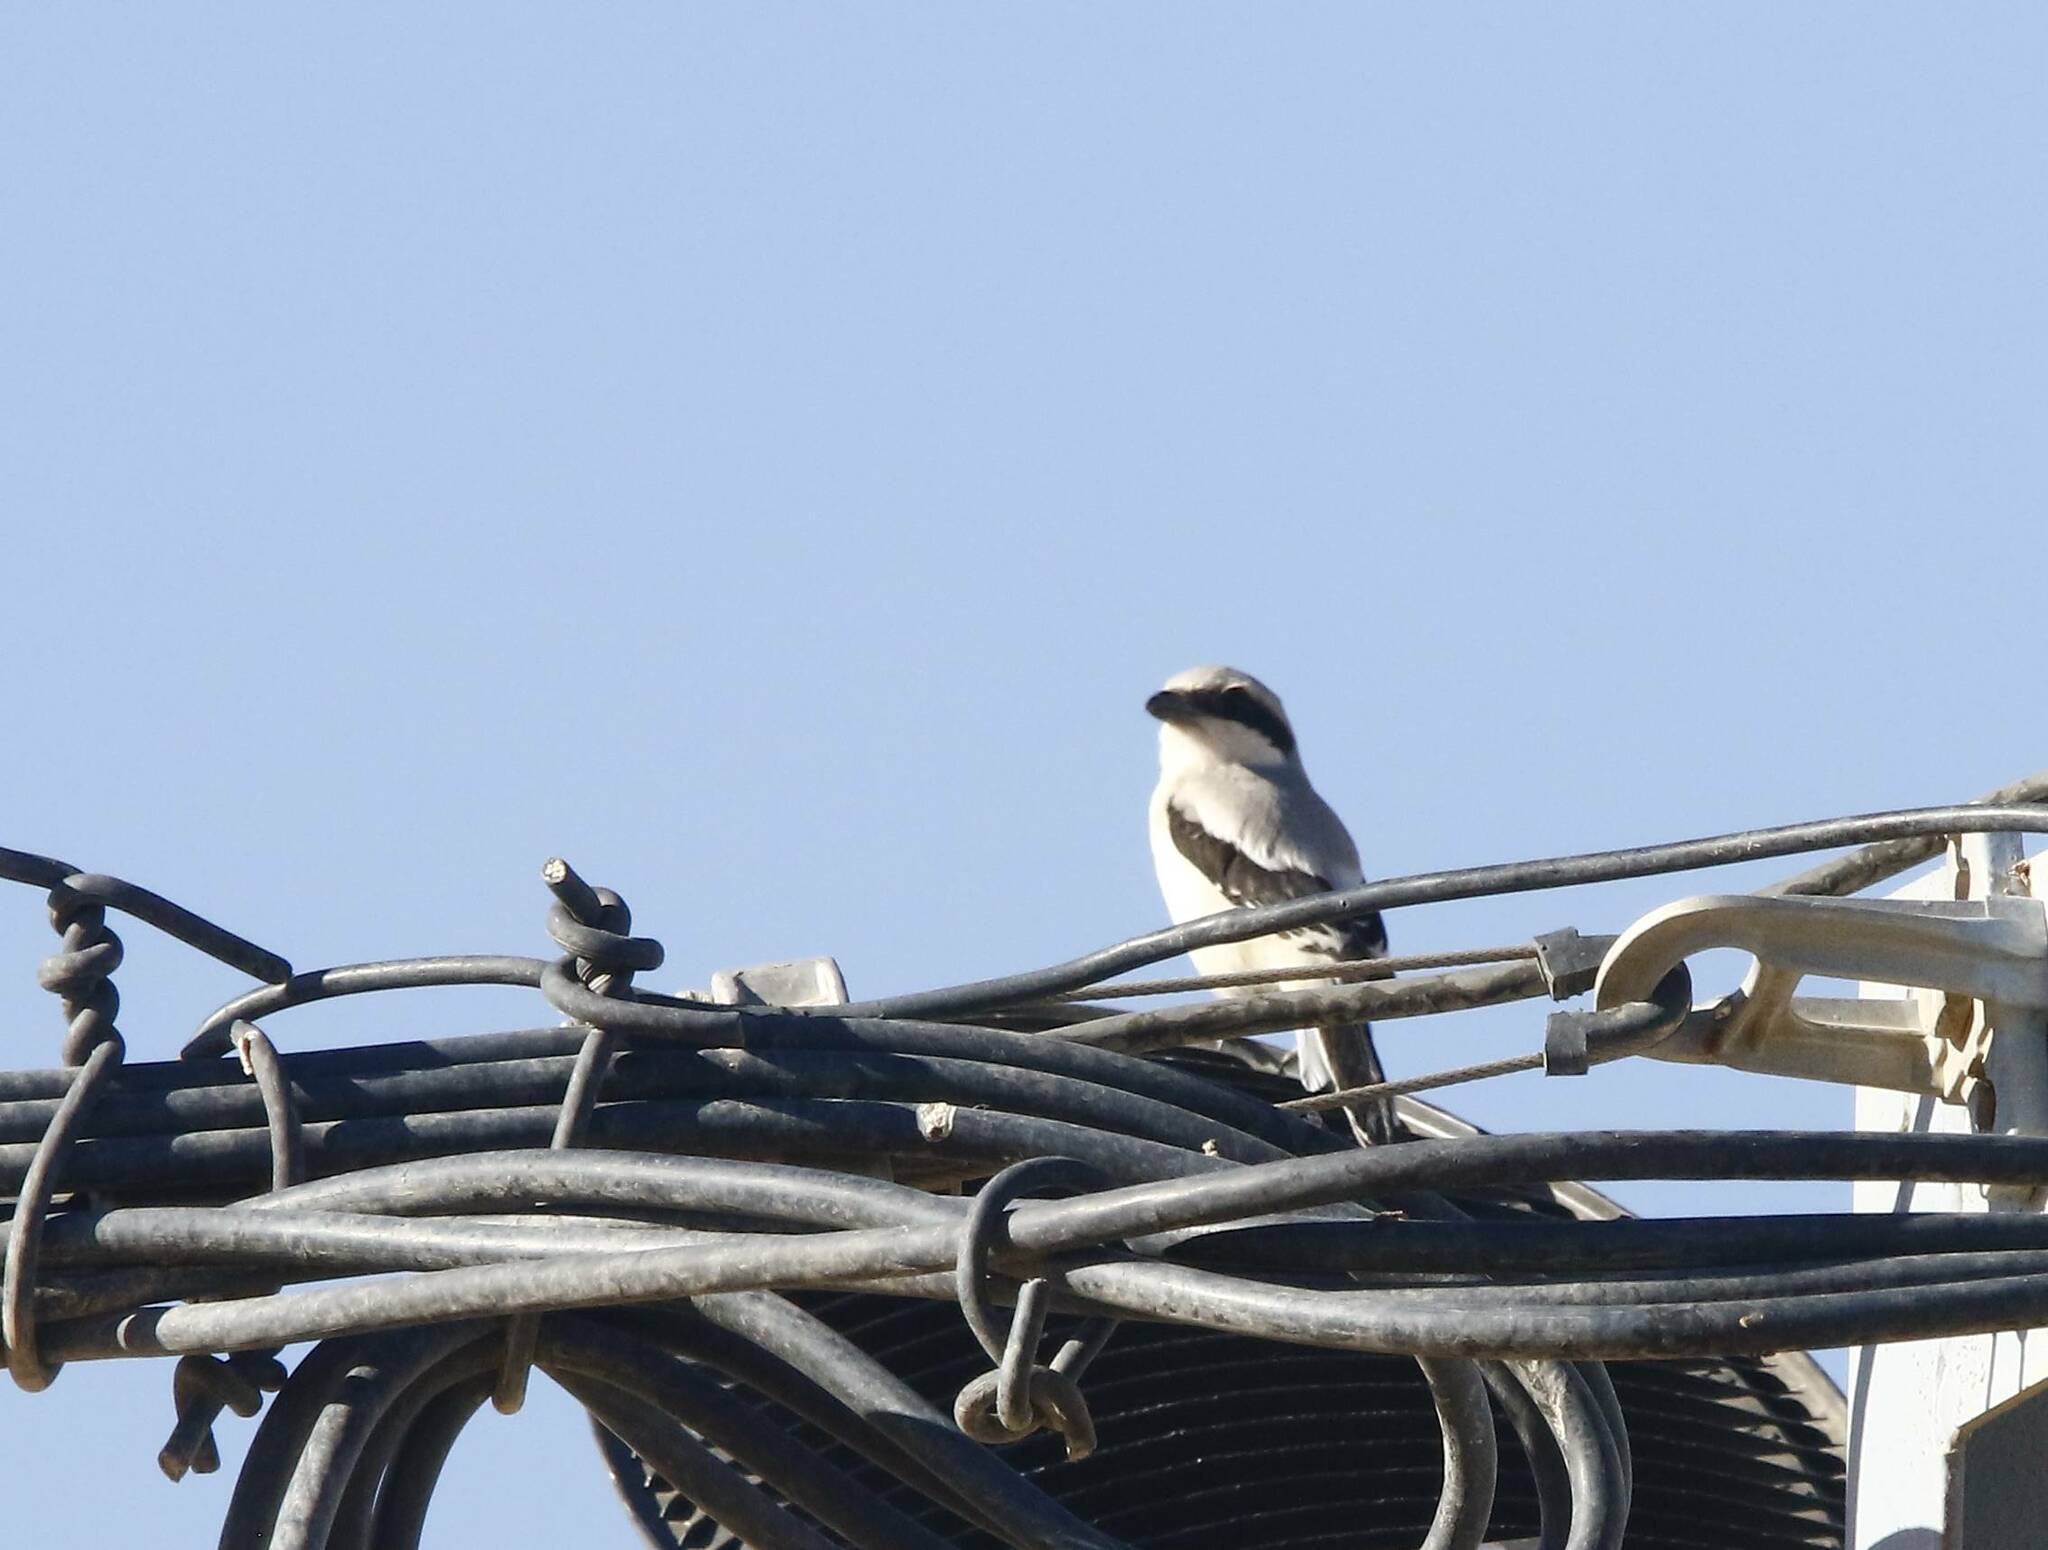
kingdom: Animalia
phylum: Chordata
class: Aves
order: Passeriformes
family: Laniidae
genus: Lanius
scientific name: Lanius excubitor
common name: Great grey shrike
